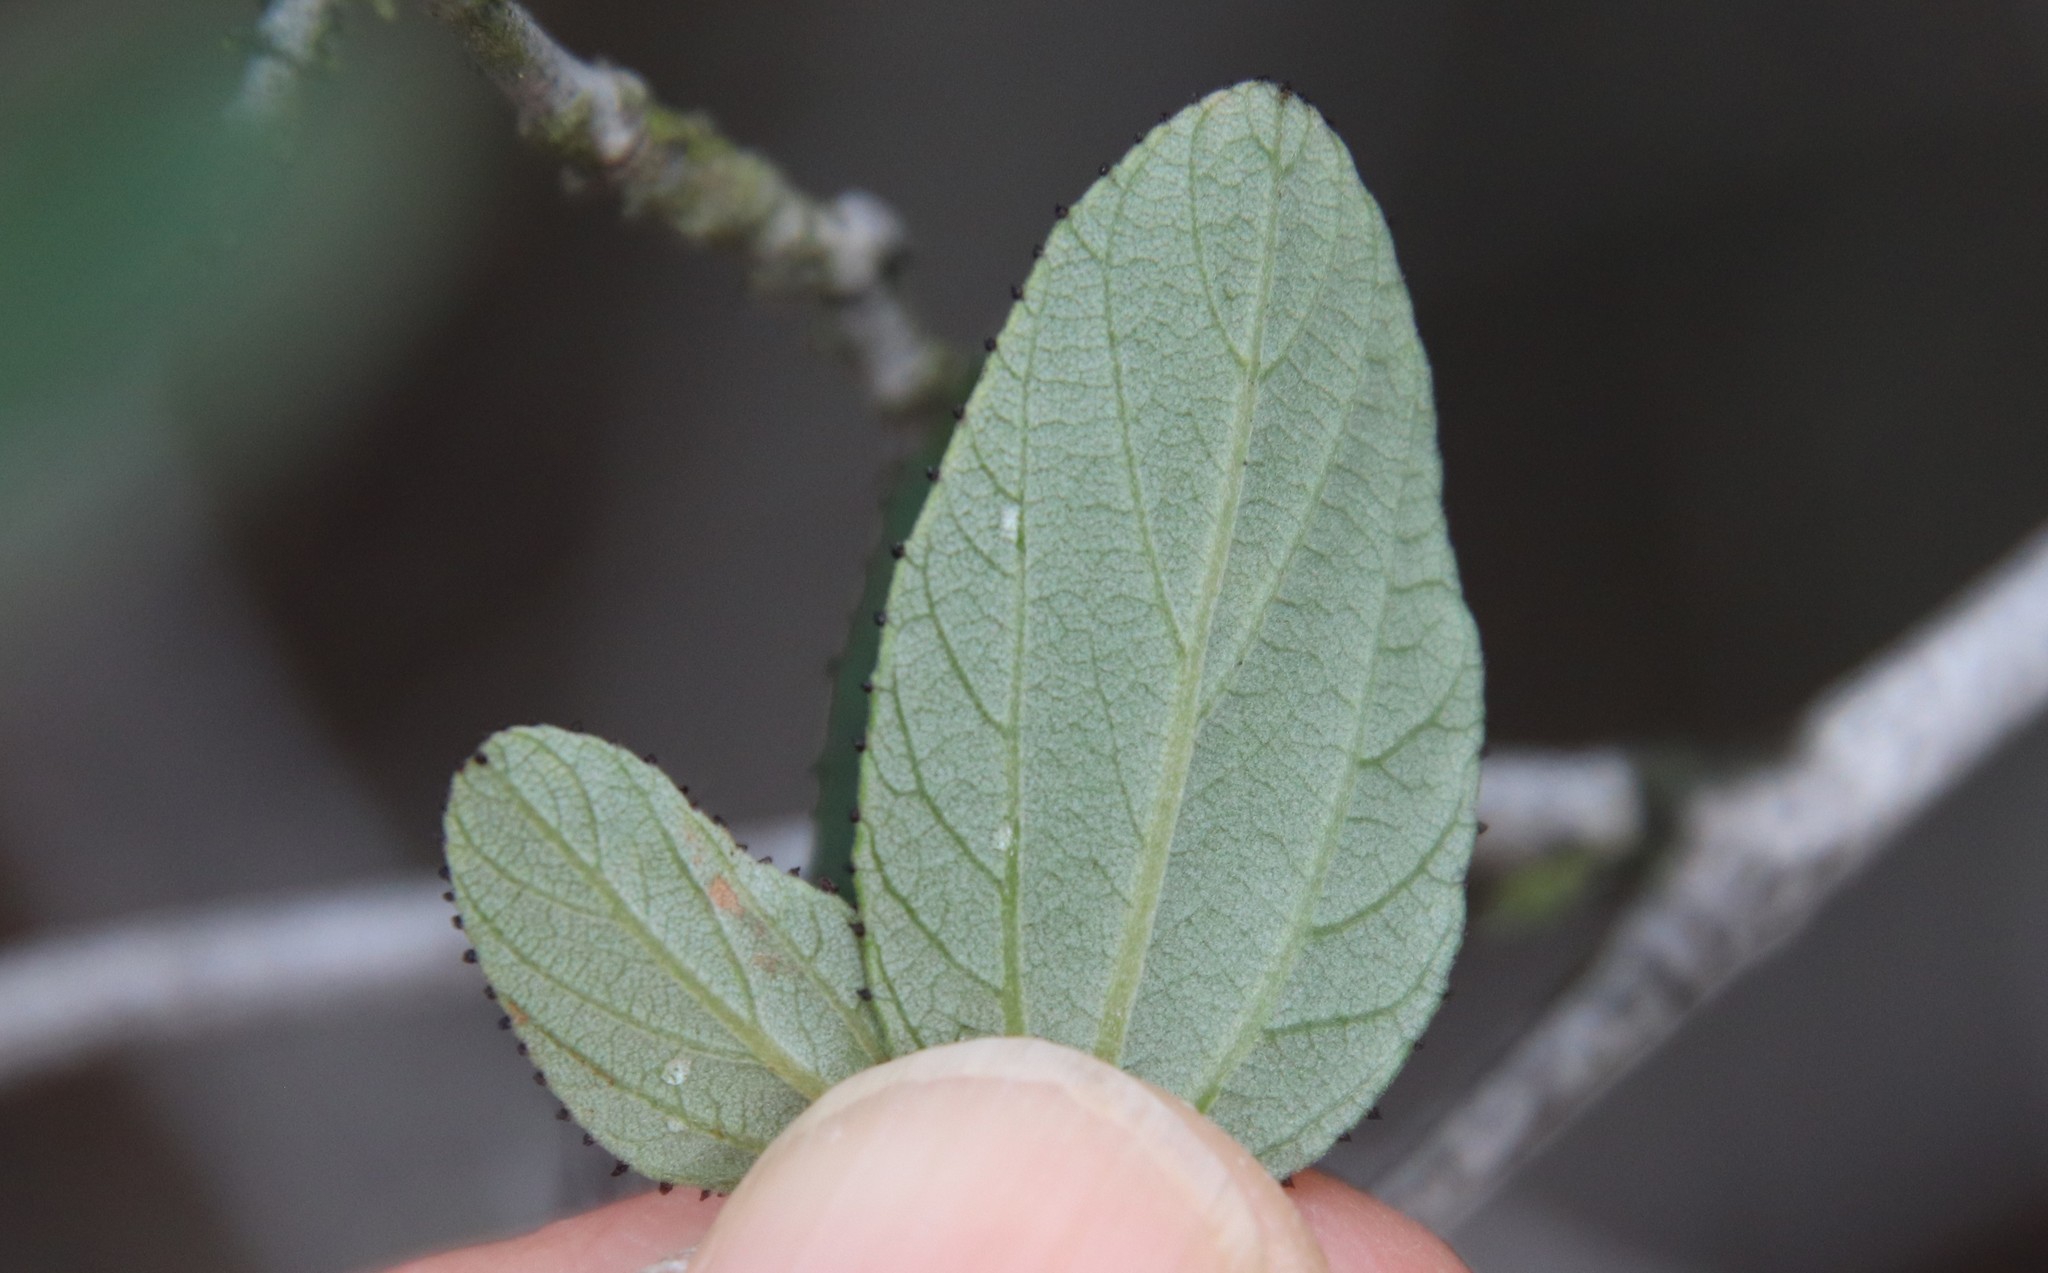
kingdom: Plantae
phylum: Tracheophyta
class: Magnoliopsida
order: Rosales
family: Rhamnaceae
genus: Ceanothus
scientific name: Ceanothus tomentosus
